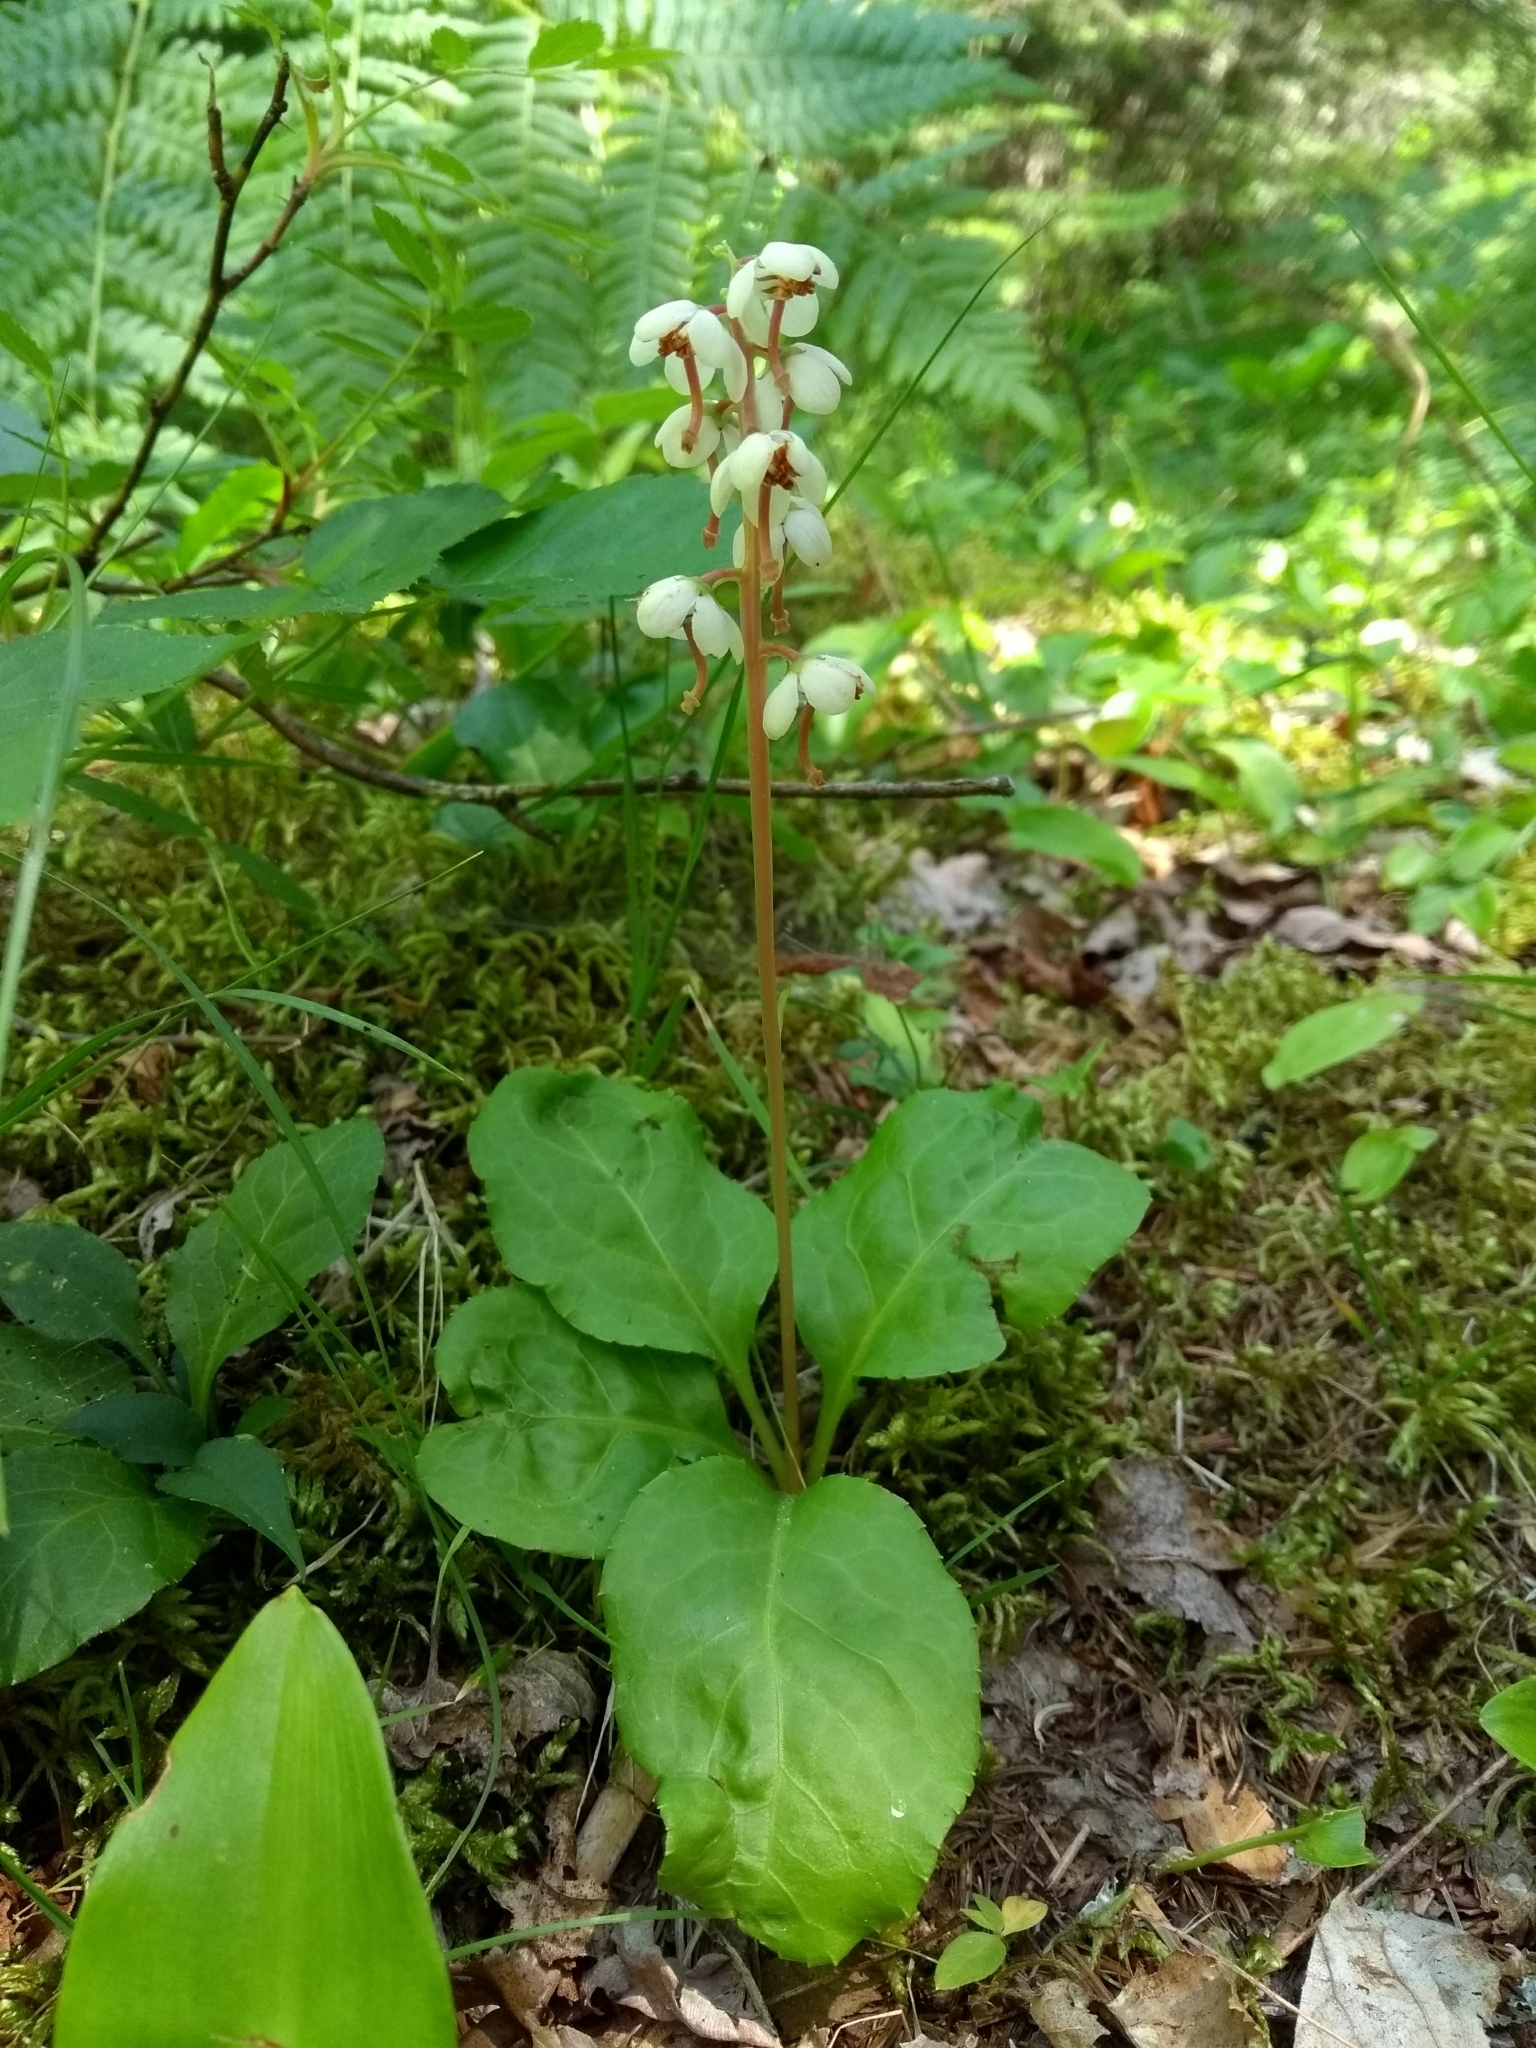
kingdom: Plantae
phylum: Tracheophyta
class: Magnoliopsida
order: Ericales
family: Ericaceae
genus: Pyrola
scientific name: Pyrola elliptica
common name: Shinleaf
